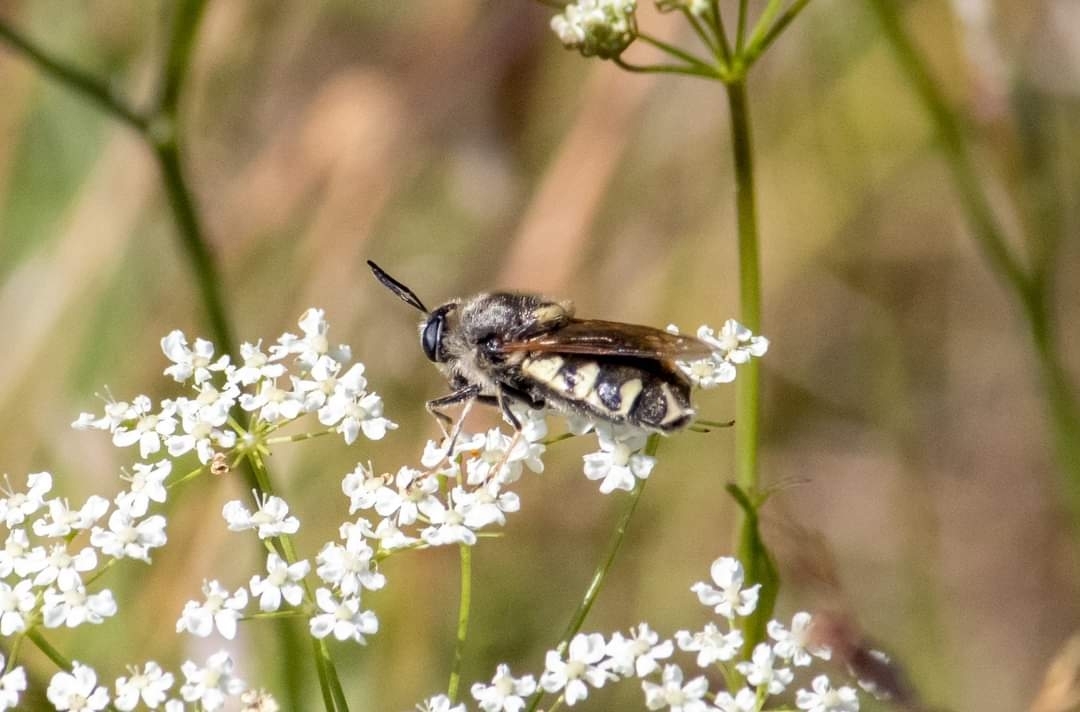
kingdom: Animalia
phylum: Arthropoda
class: Insecta
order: Diptera
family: Stratiomyidae
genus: Stratiomys
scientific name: Stratiomys singularior
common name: Flecked general
